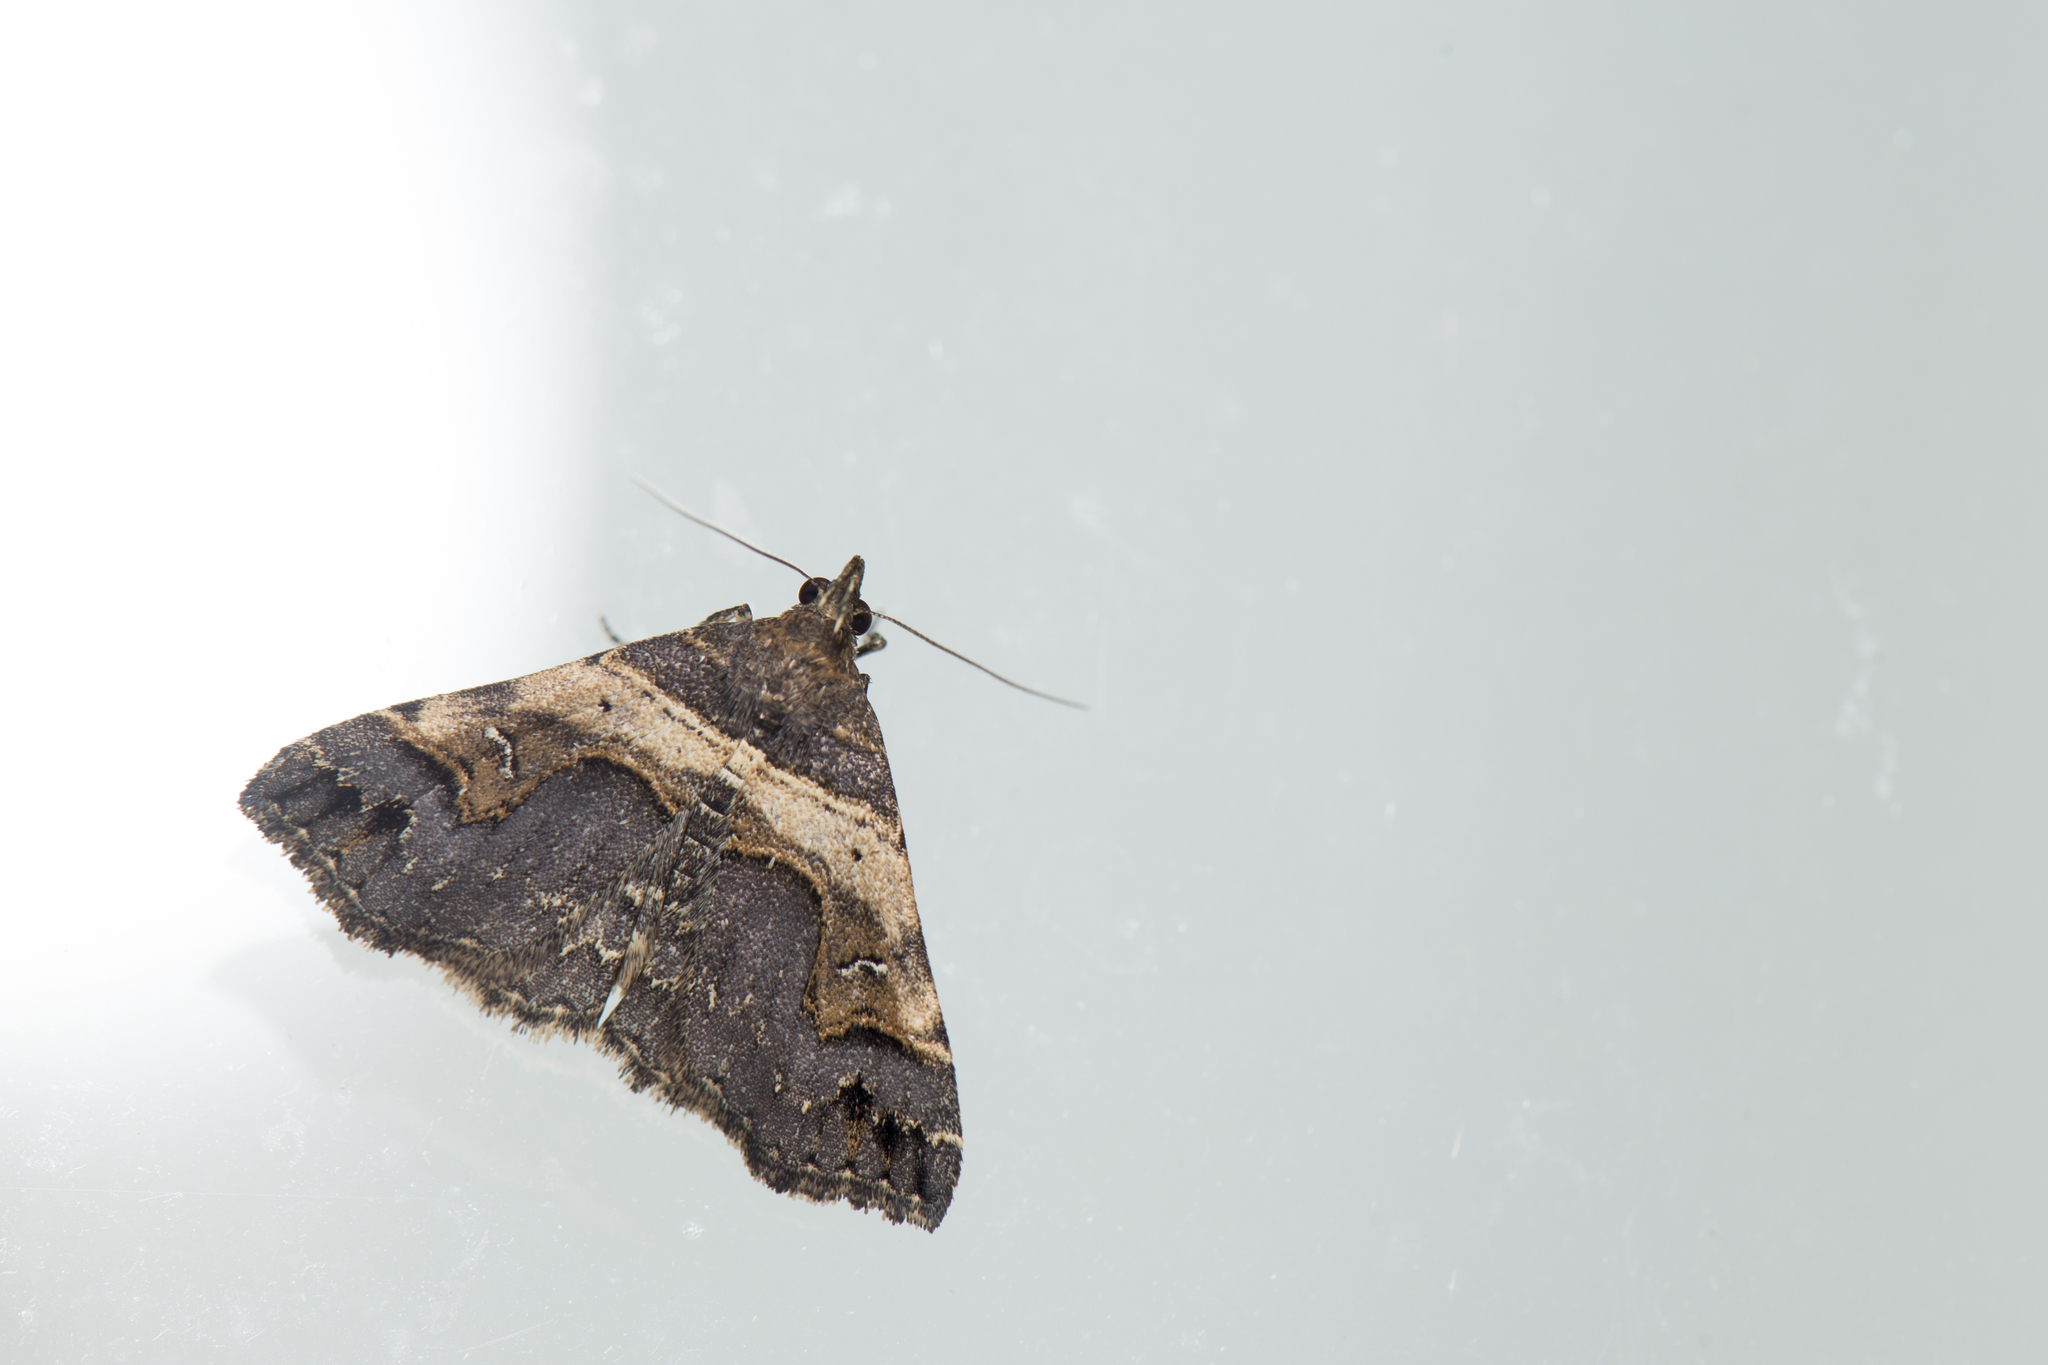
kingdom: Animalia
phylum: Arthropoda
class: Insecta
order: Lepidoptera
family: Erebidae
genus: Bertula
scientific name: Bertula abjudicalis
